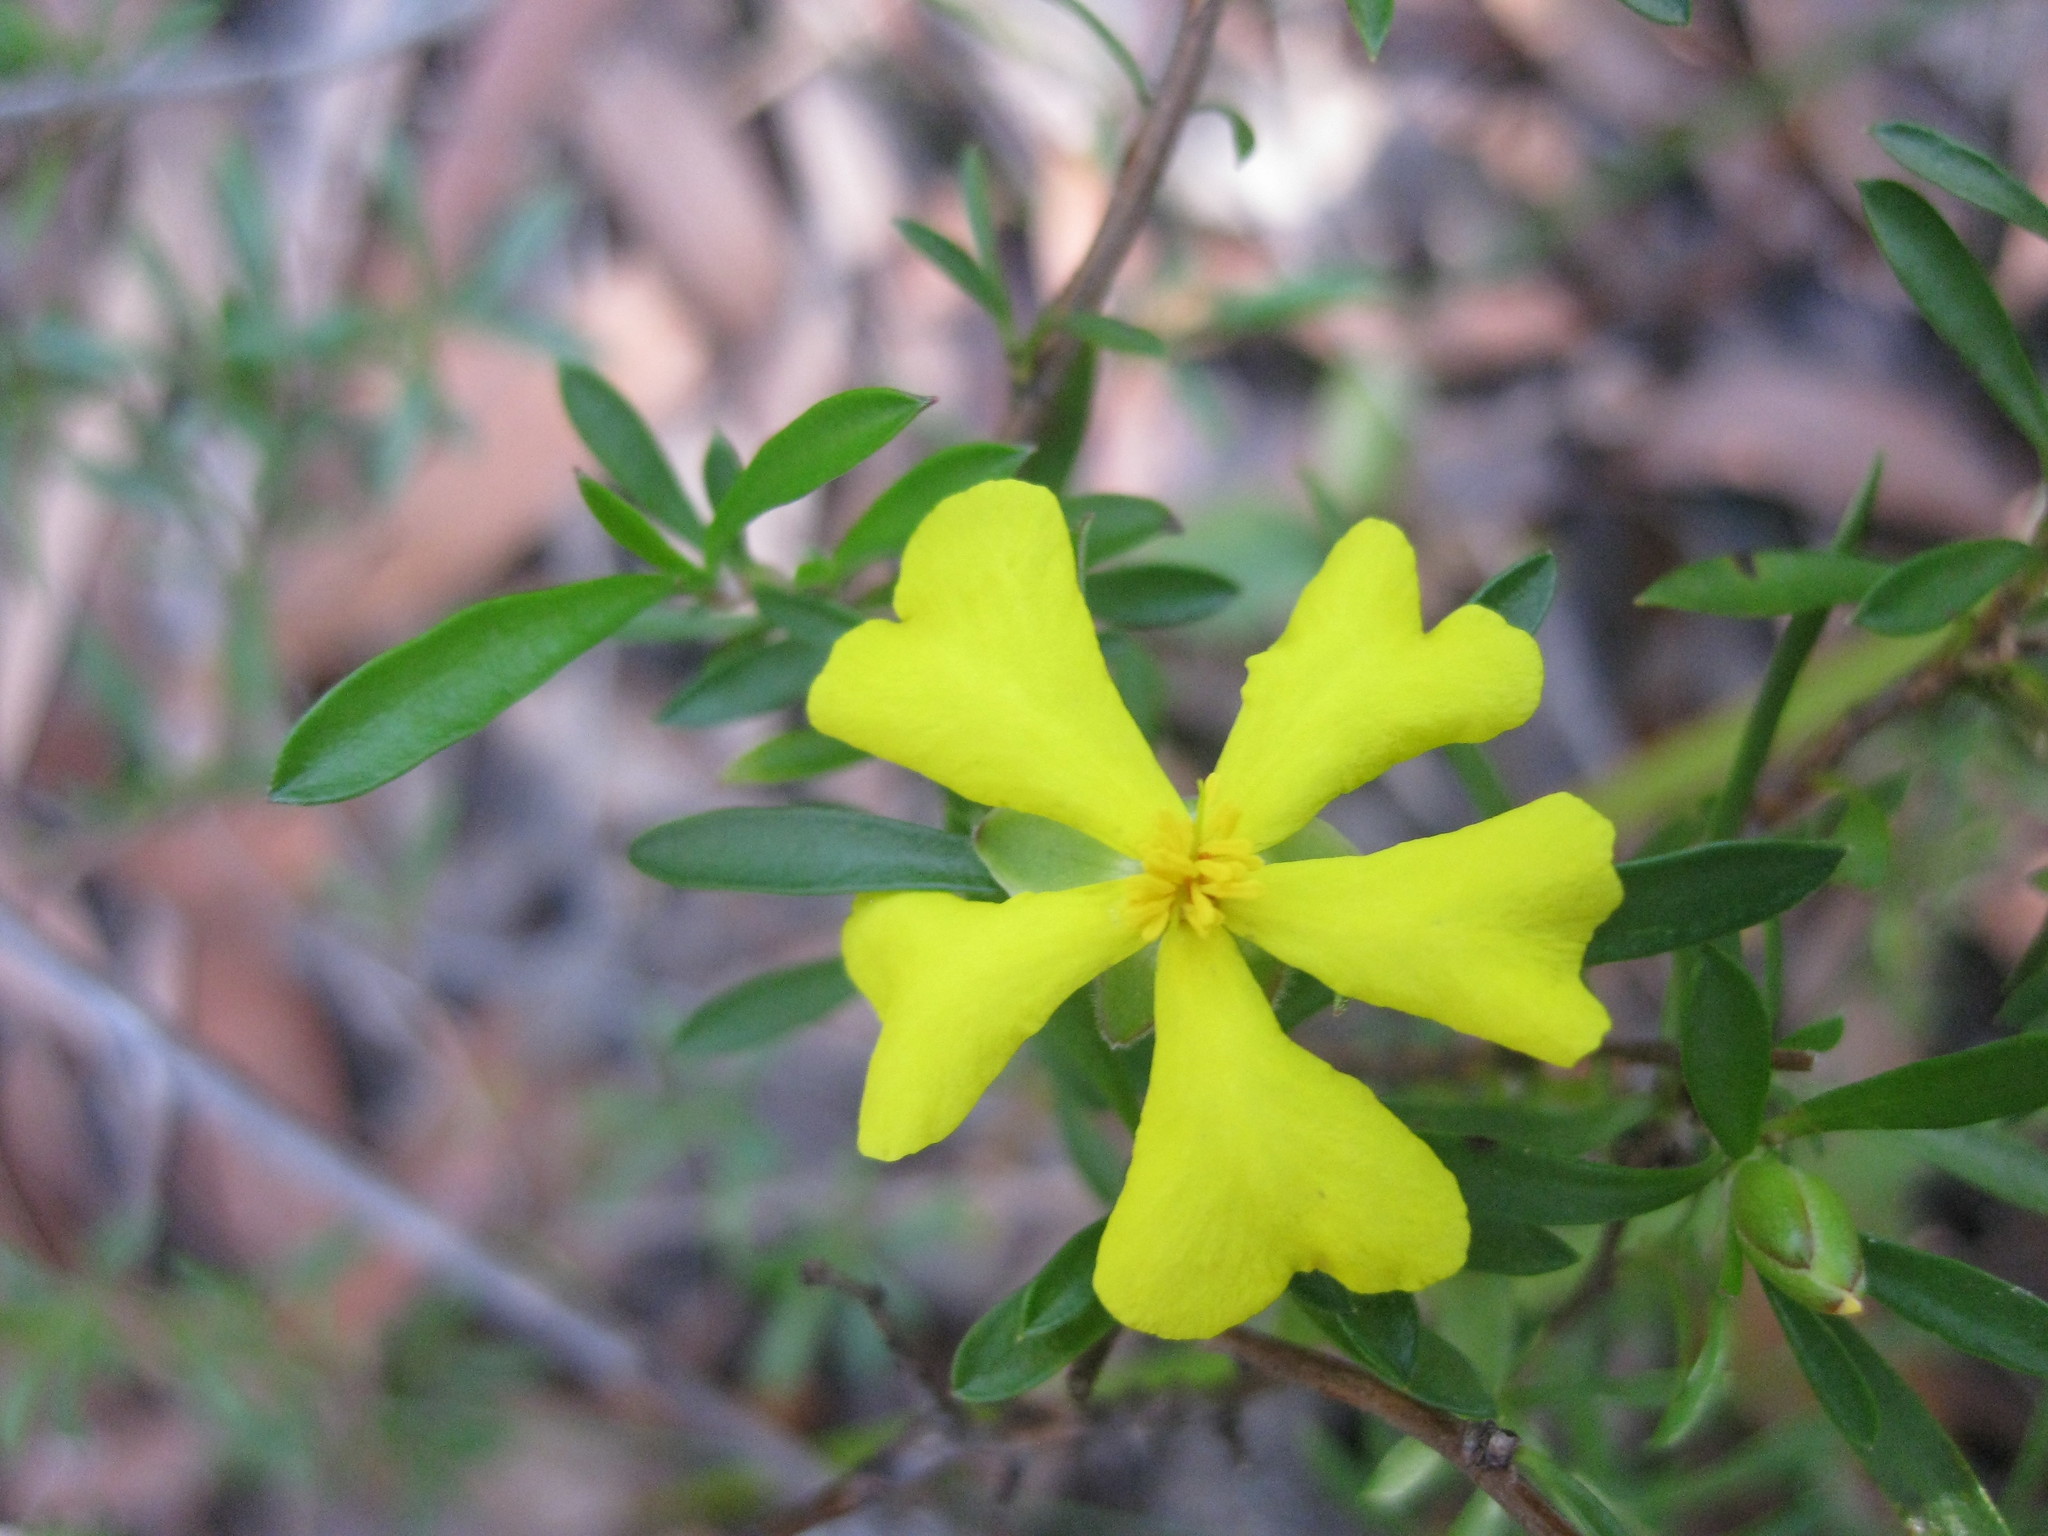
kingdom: Plantae
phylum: Tracheophyta
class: Magnoliopsida
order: Dilleniales
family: Dilleniaceae
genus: Hibbertia
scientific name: Hibbertia linearis
